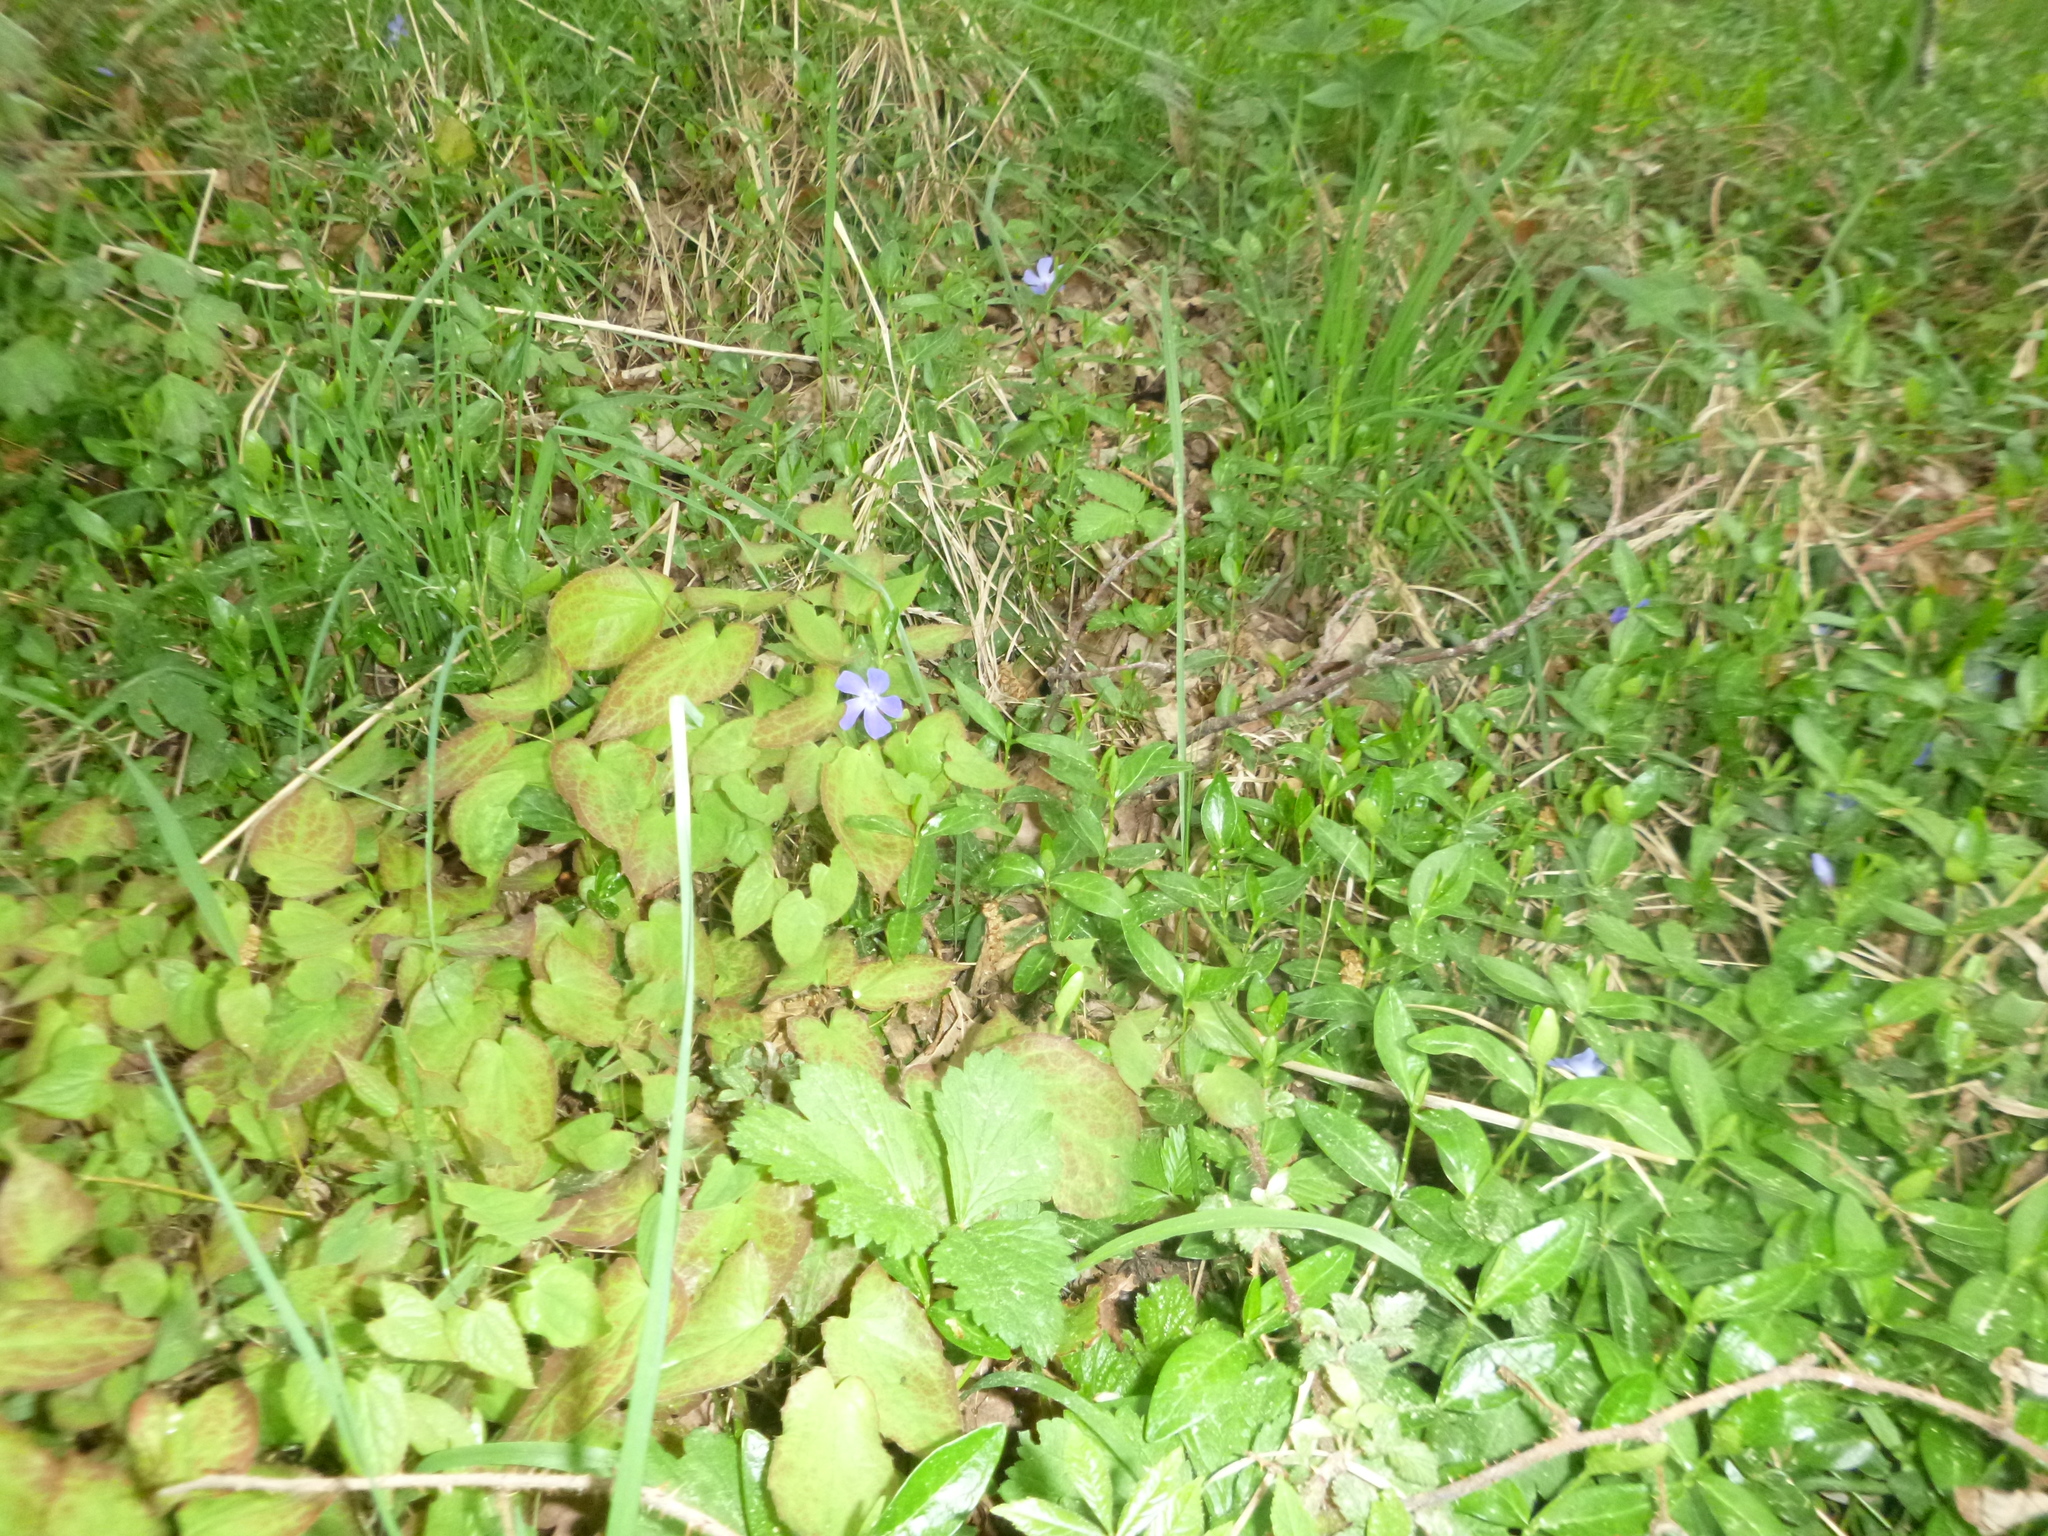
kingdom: Plantae
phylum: Tracheophyta
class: Magnoliopsida
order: Gentianales
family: Apocynaceae
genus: Vinca
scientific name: Vinca minor
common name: Lesser periwinkle
